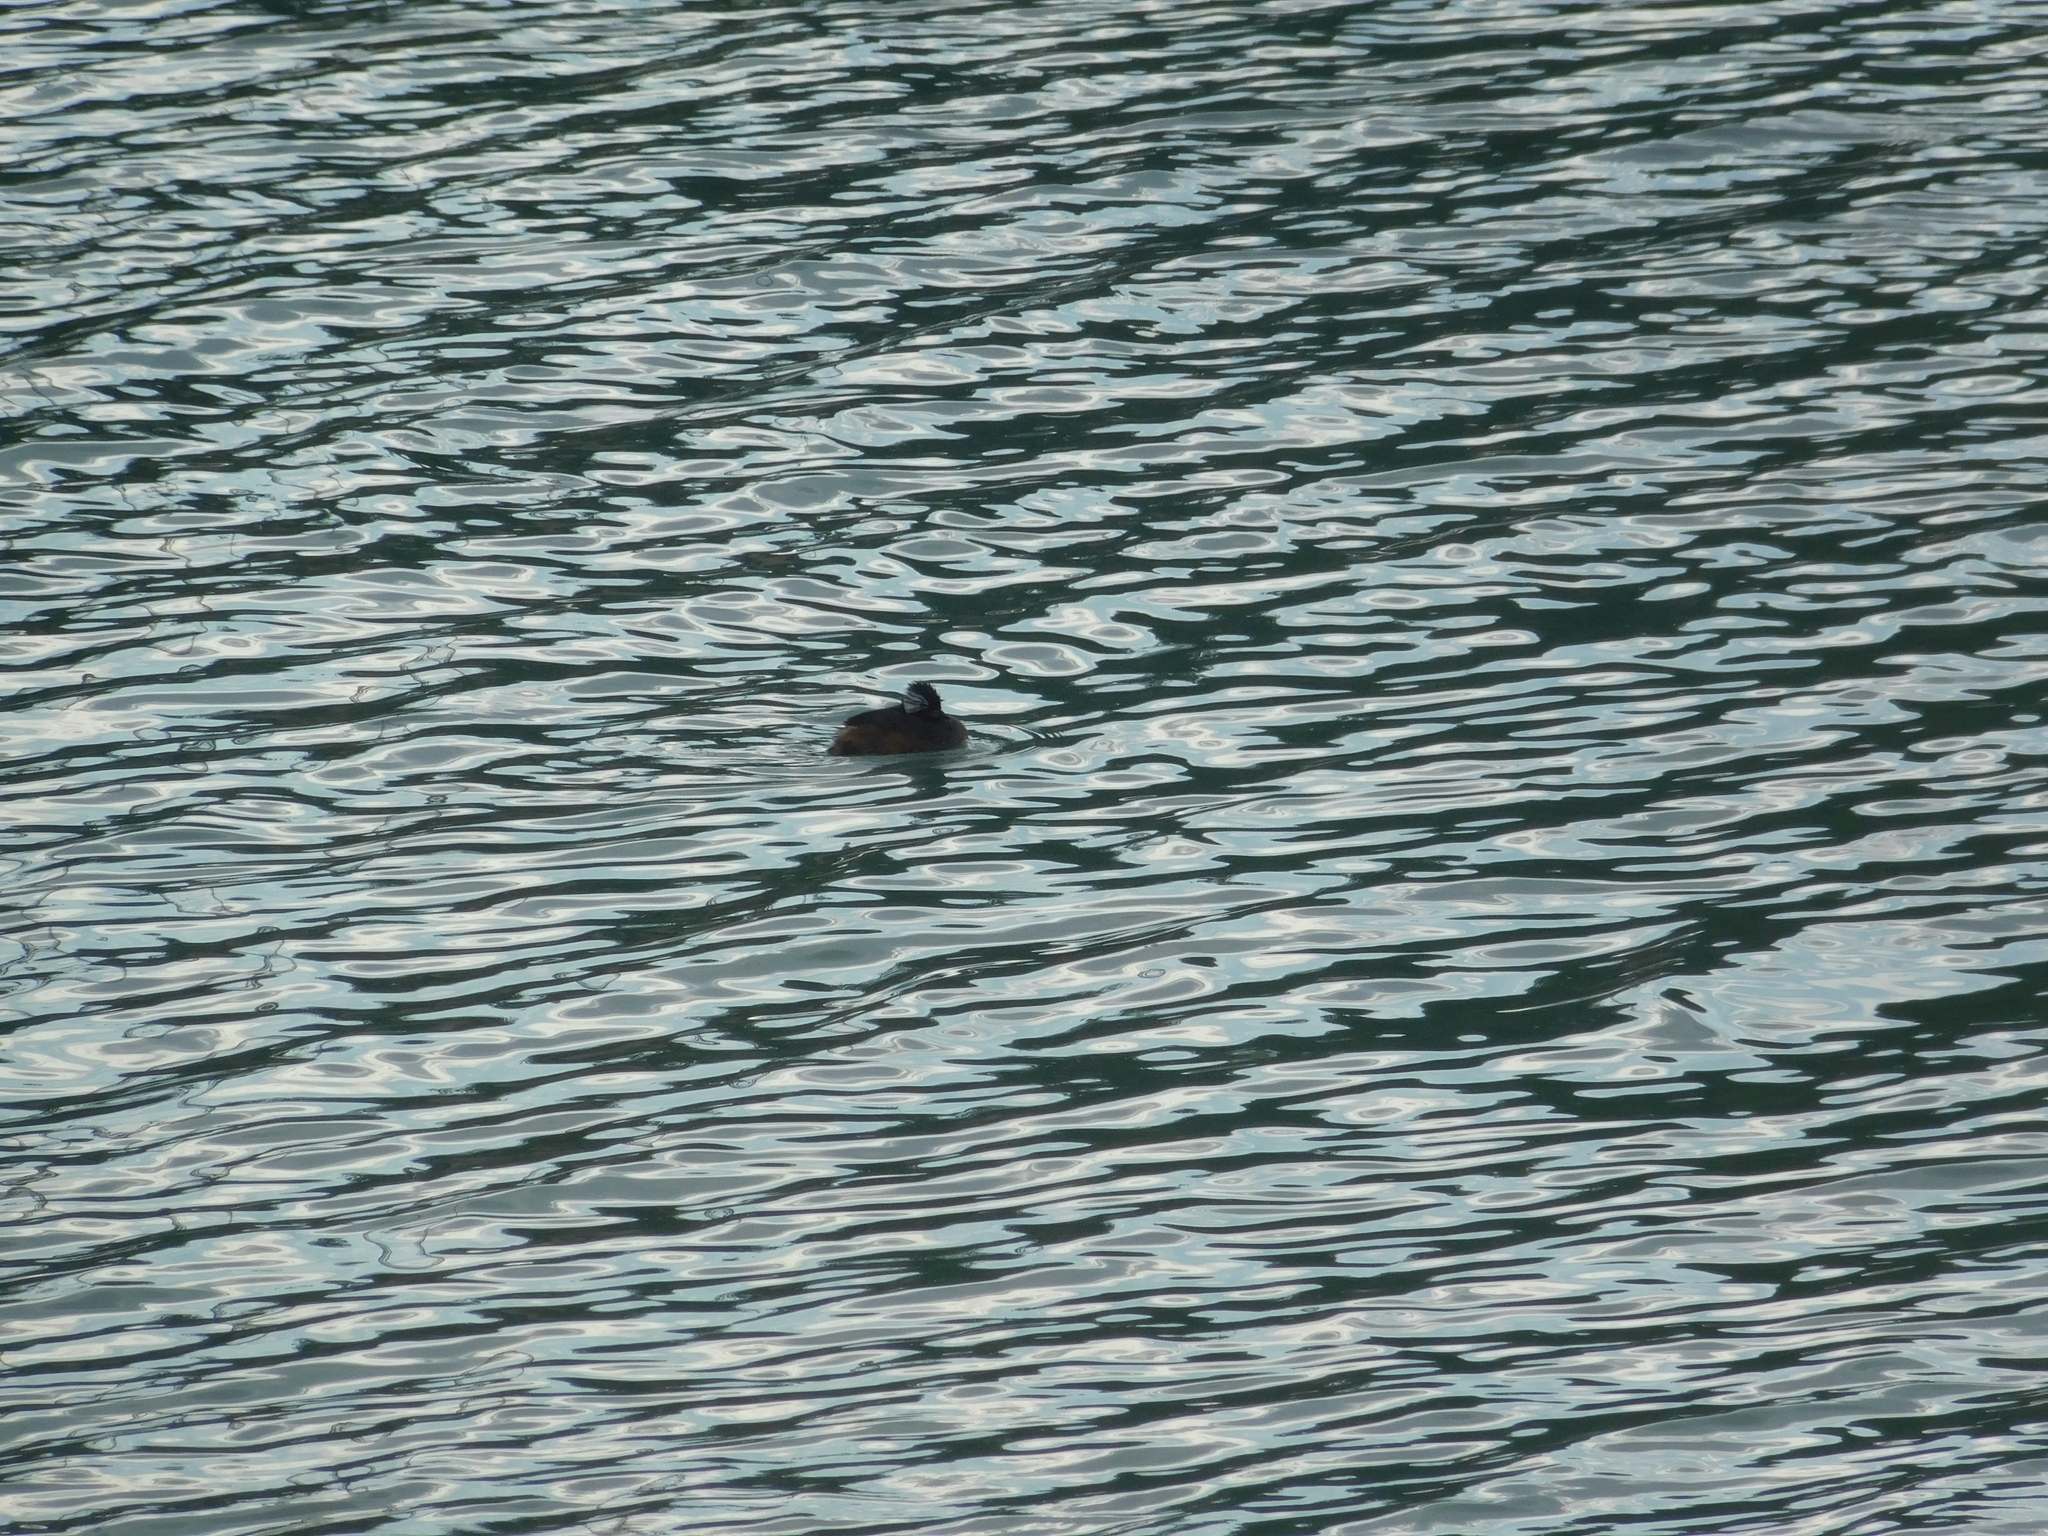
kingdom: Animalia
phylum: Chordata
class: Aves
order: Podicipediformes
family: Podicipedidae
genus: Rollandia
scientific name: Rollandia rolland
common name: White-tufted grebe
